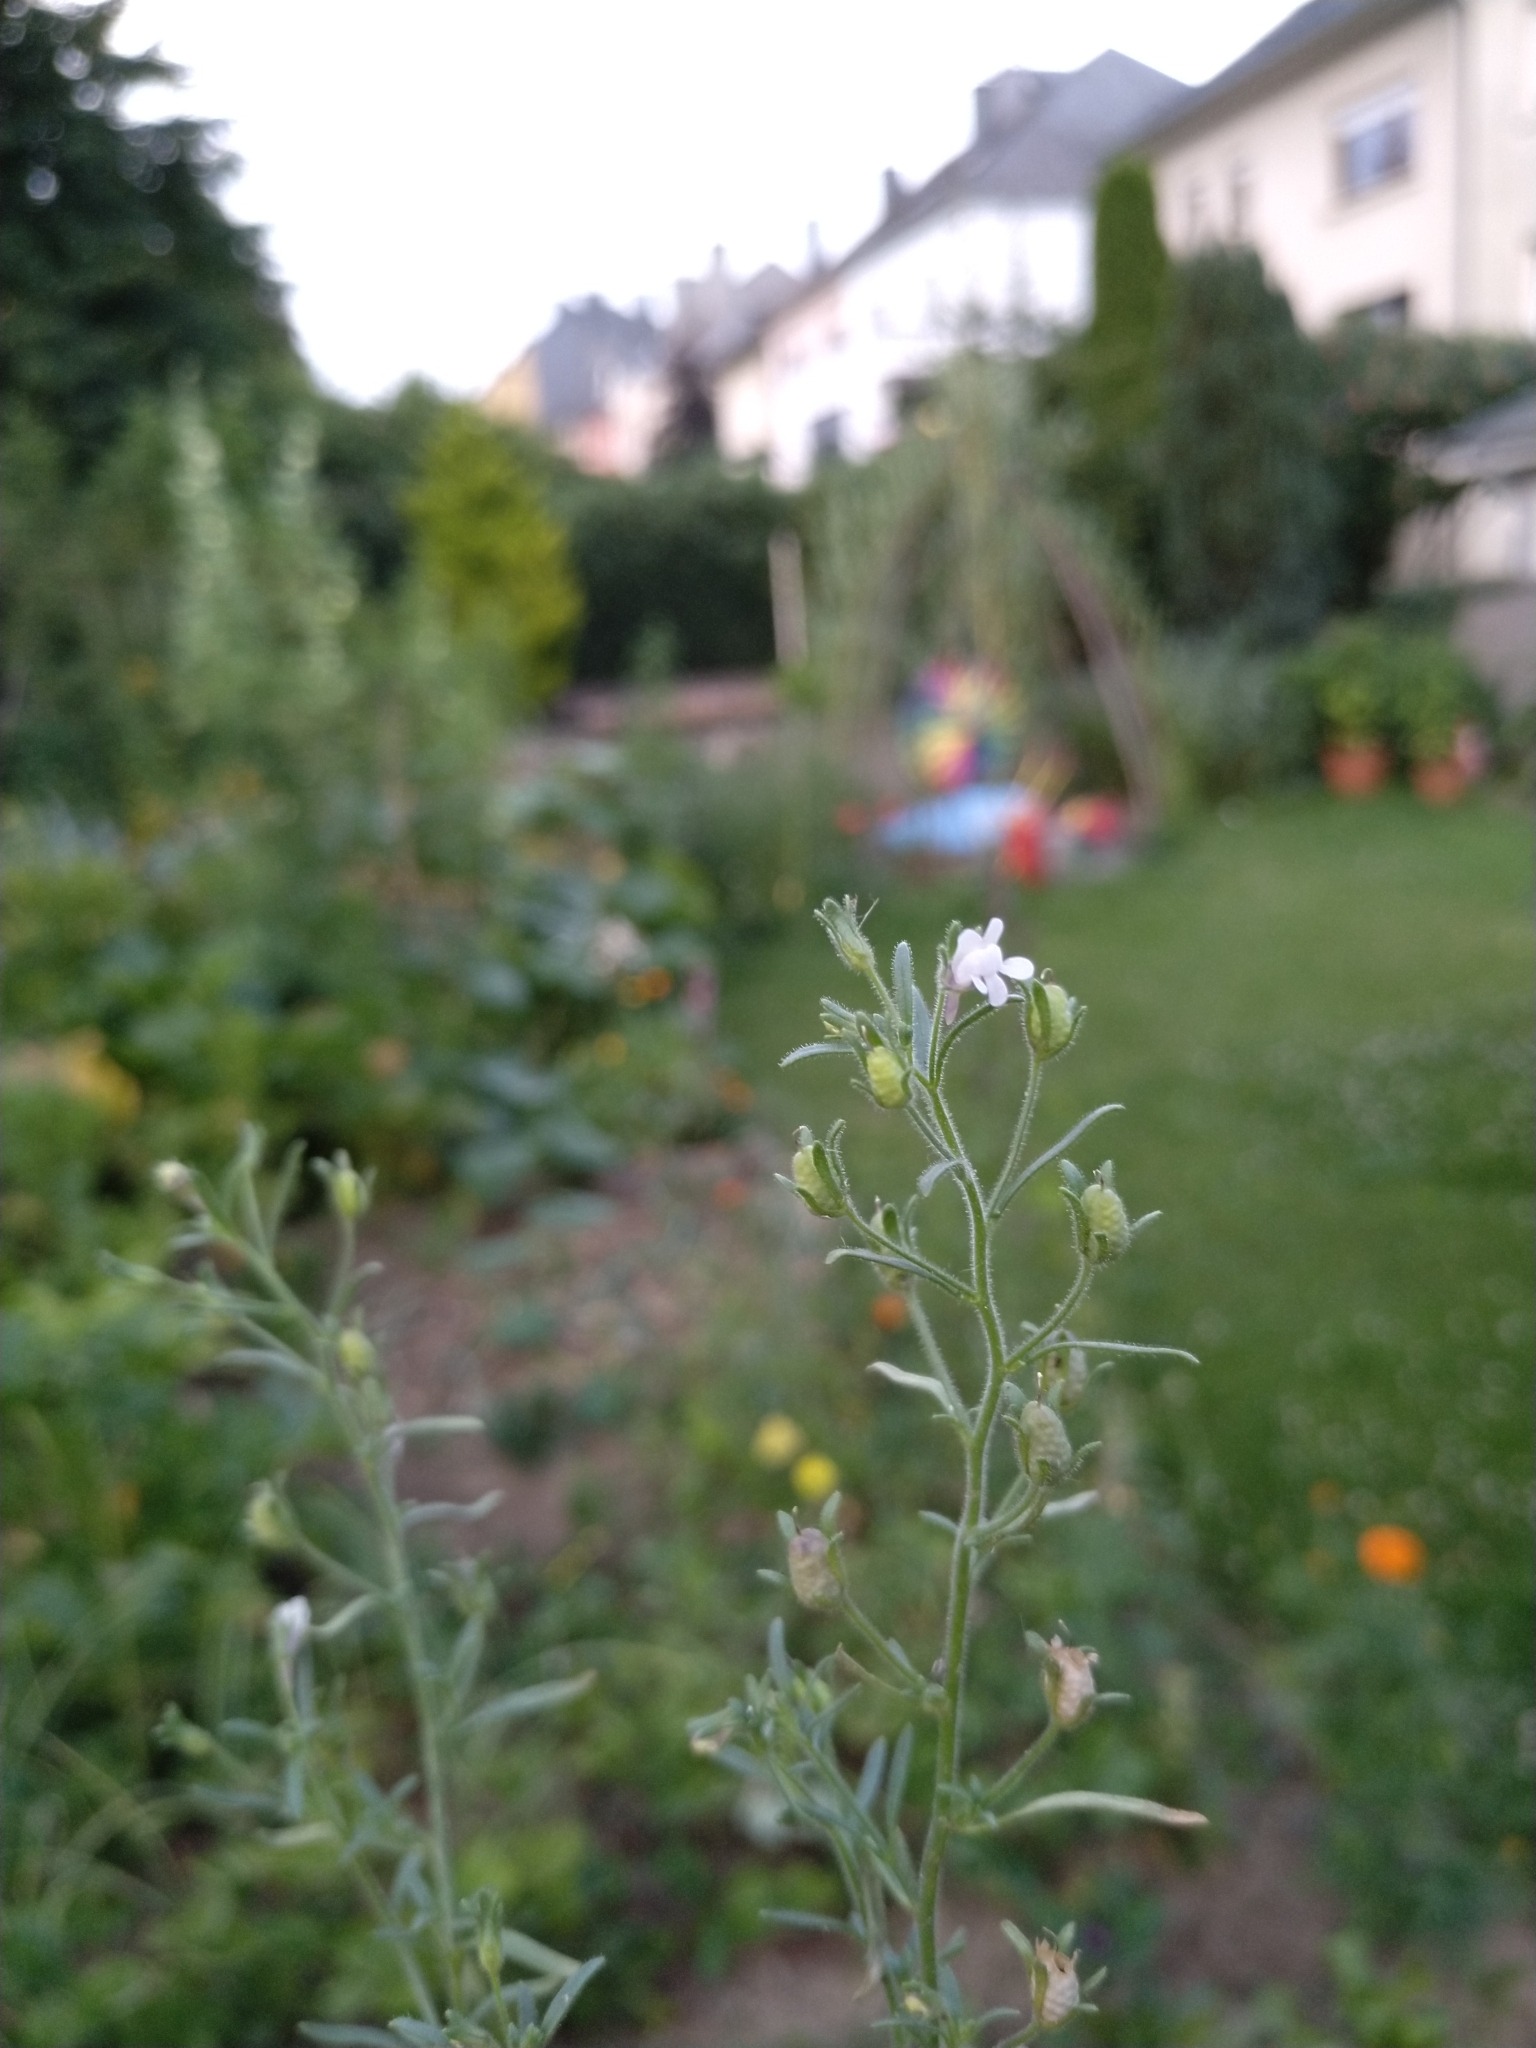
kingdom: Plantae
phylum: Tracheophyta
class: Magnoliopsida
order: Lamiales
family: Plantaginaceae
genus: Chaenorhinum
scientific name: Chaenorhinum minus
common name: Dwarf snapdragon
